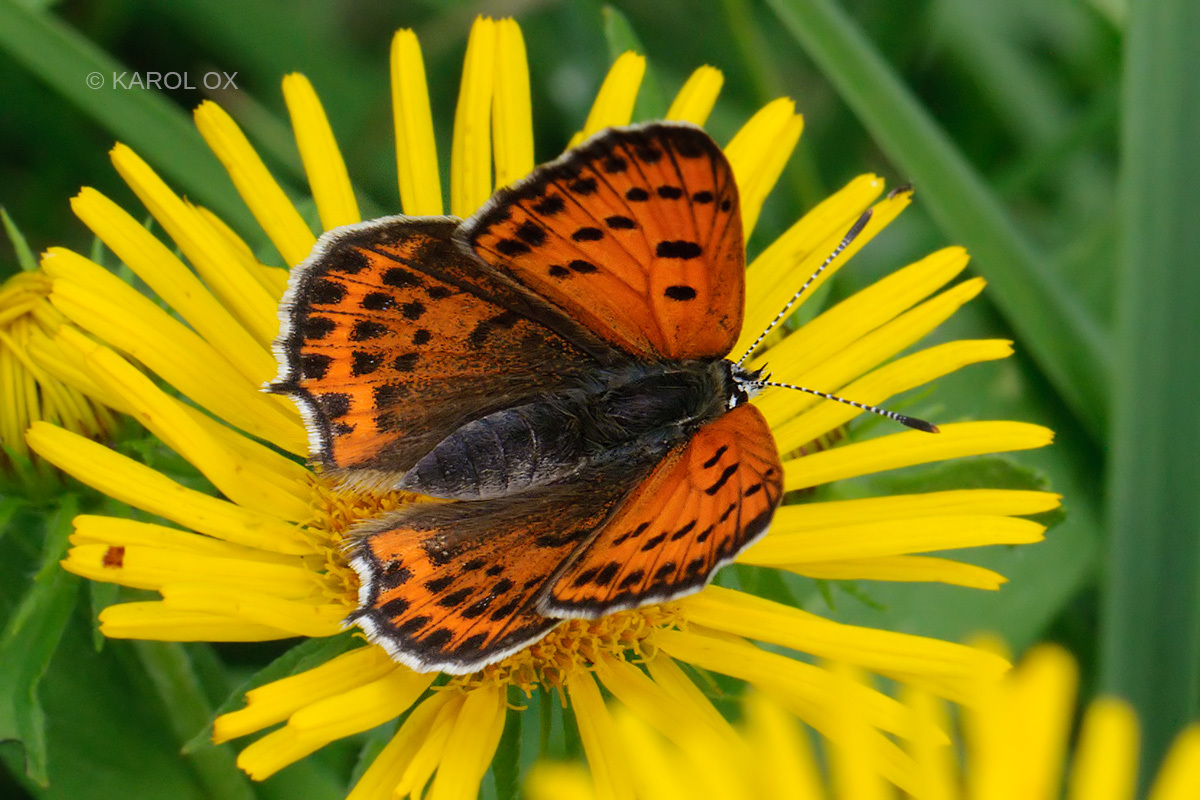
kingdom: Animalia
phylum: Arthropoda
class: Insecta
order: Lepidoptera
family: Lycaenidae
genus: Thersamonia
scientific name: Thersamonia thersamon
